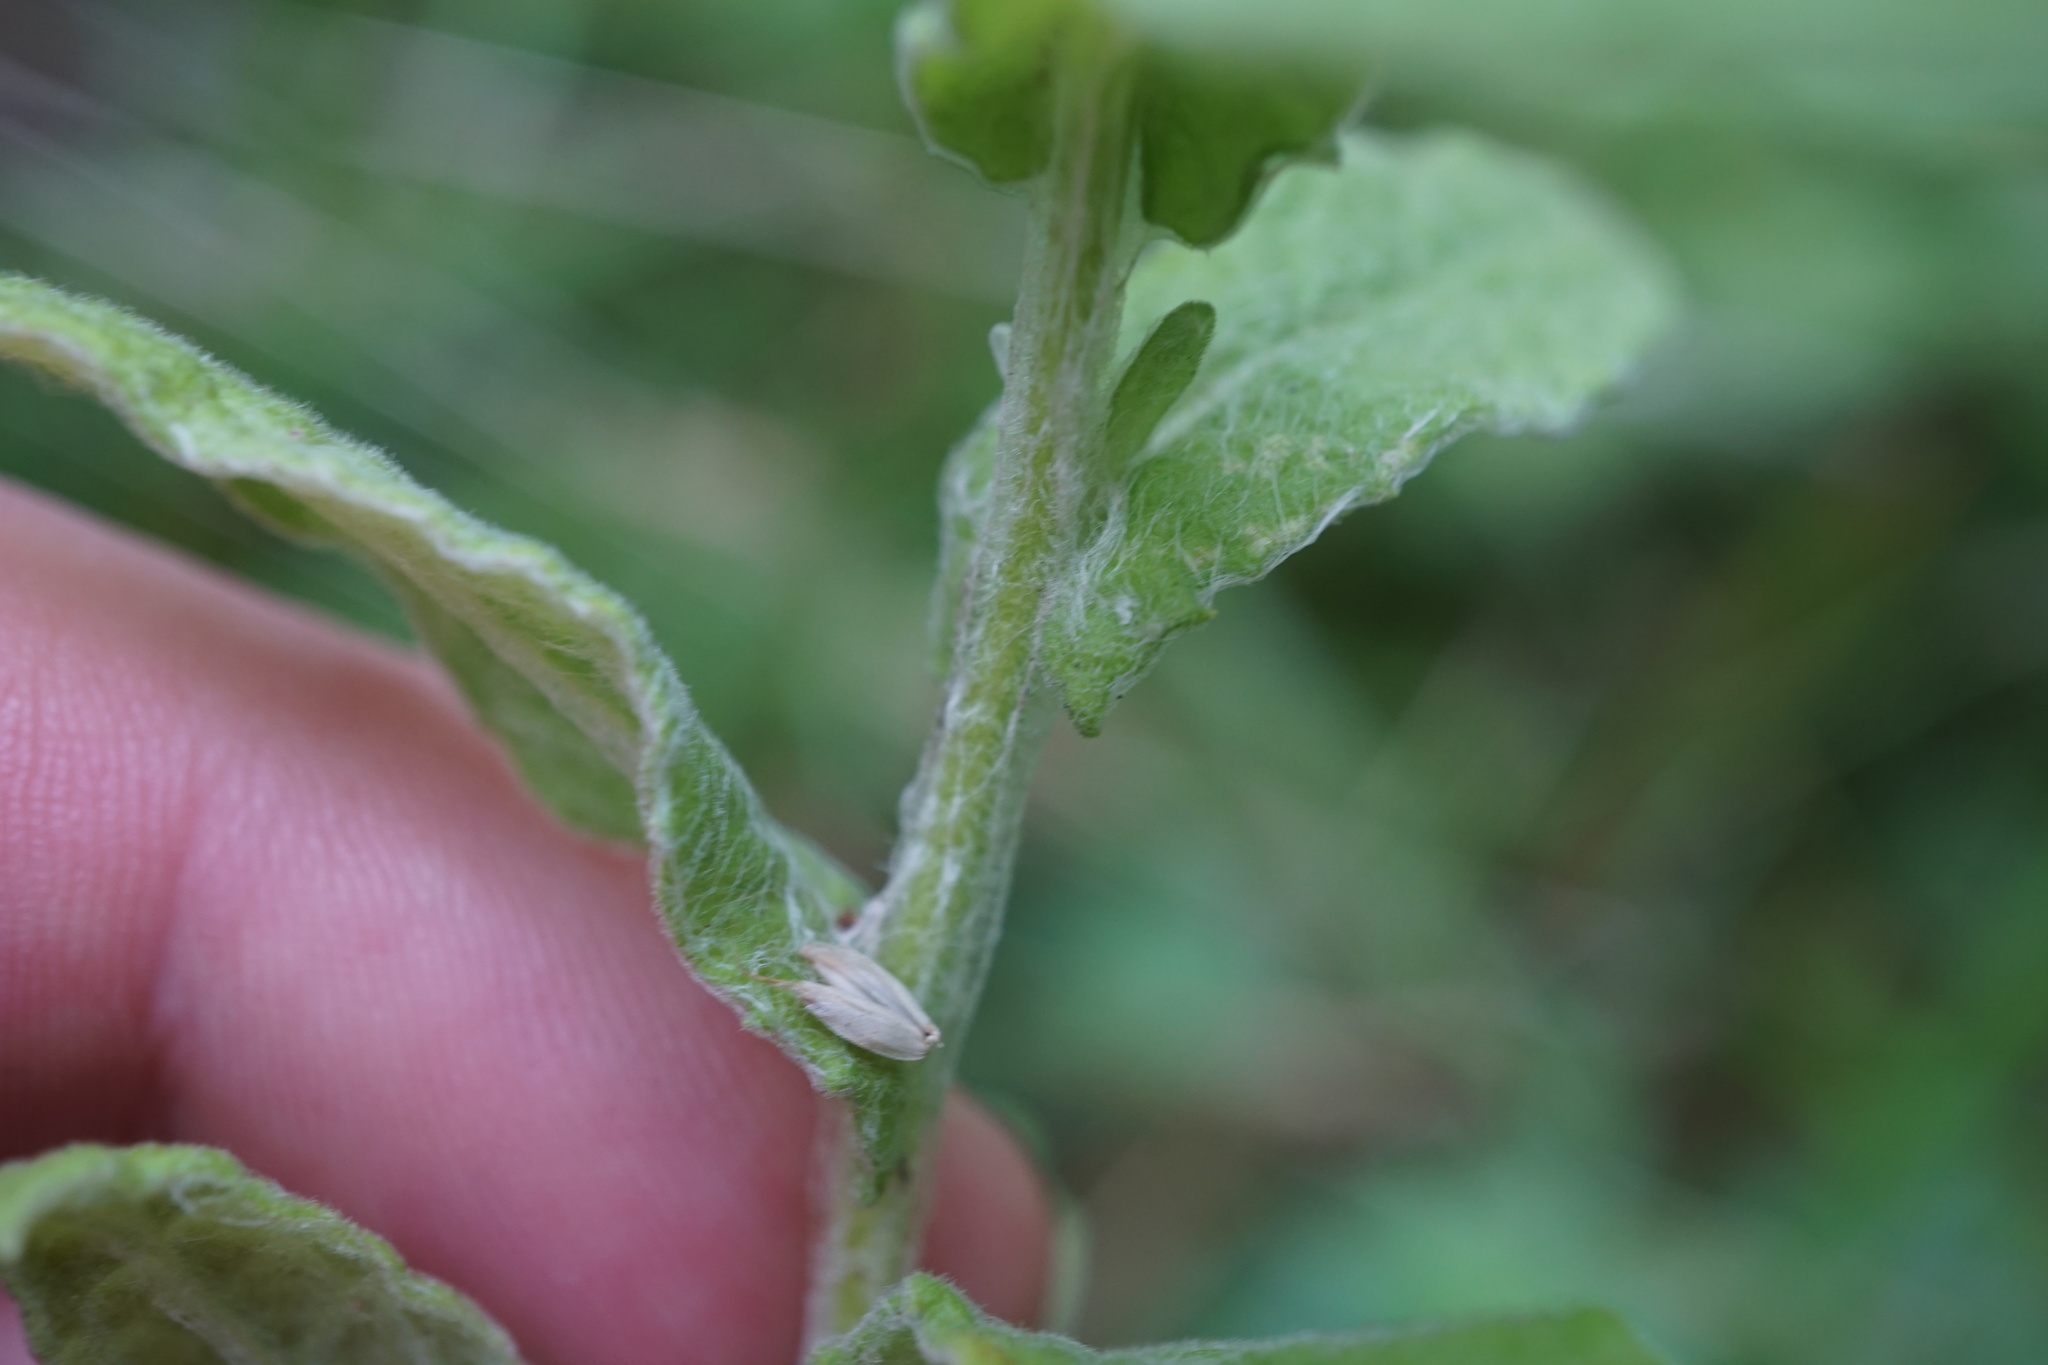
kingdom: Plantae
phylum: Tracheophyta
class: Magnoliopsida
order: Asterales
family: Asteraceae
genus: Pulicaria
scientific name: Pulicaria dysenterica
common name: Common fleabane
